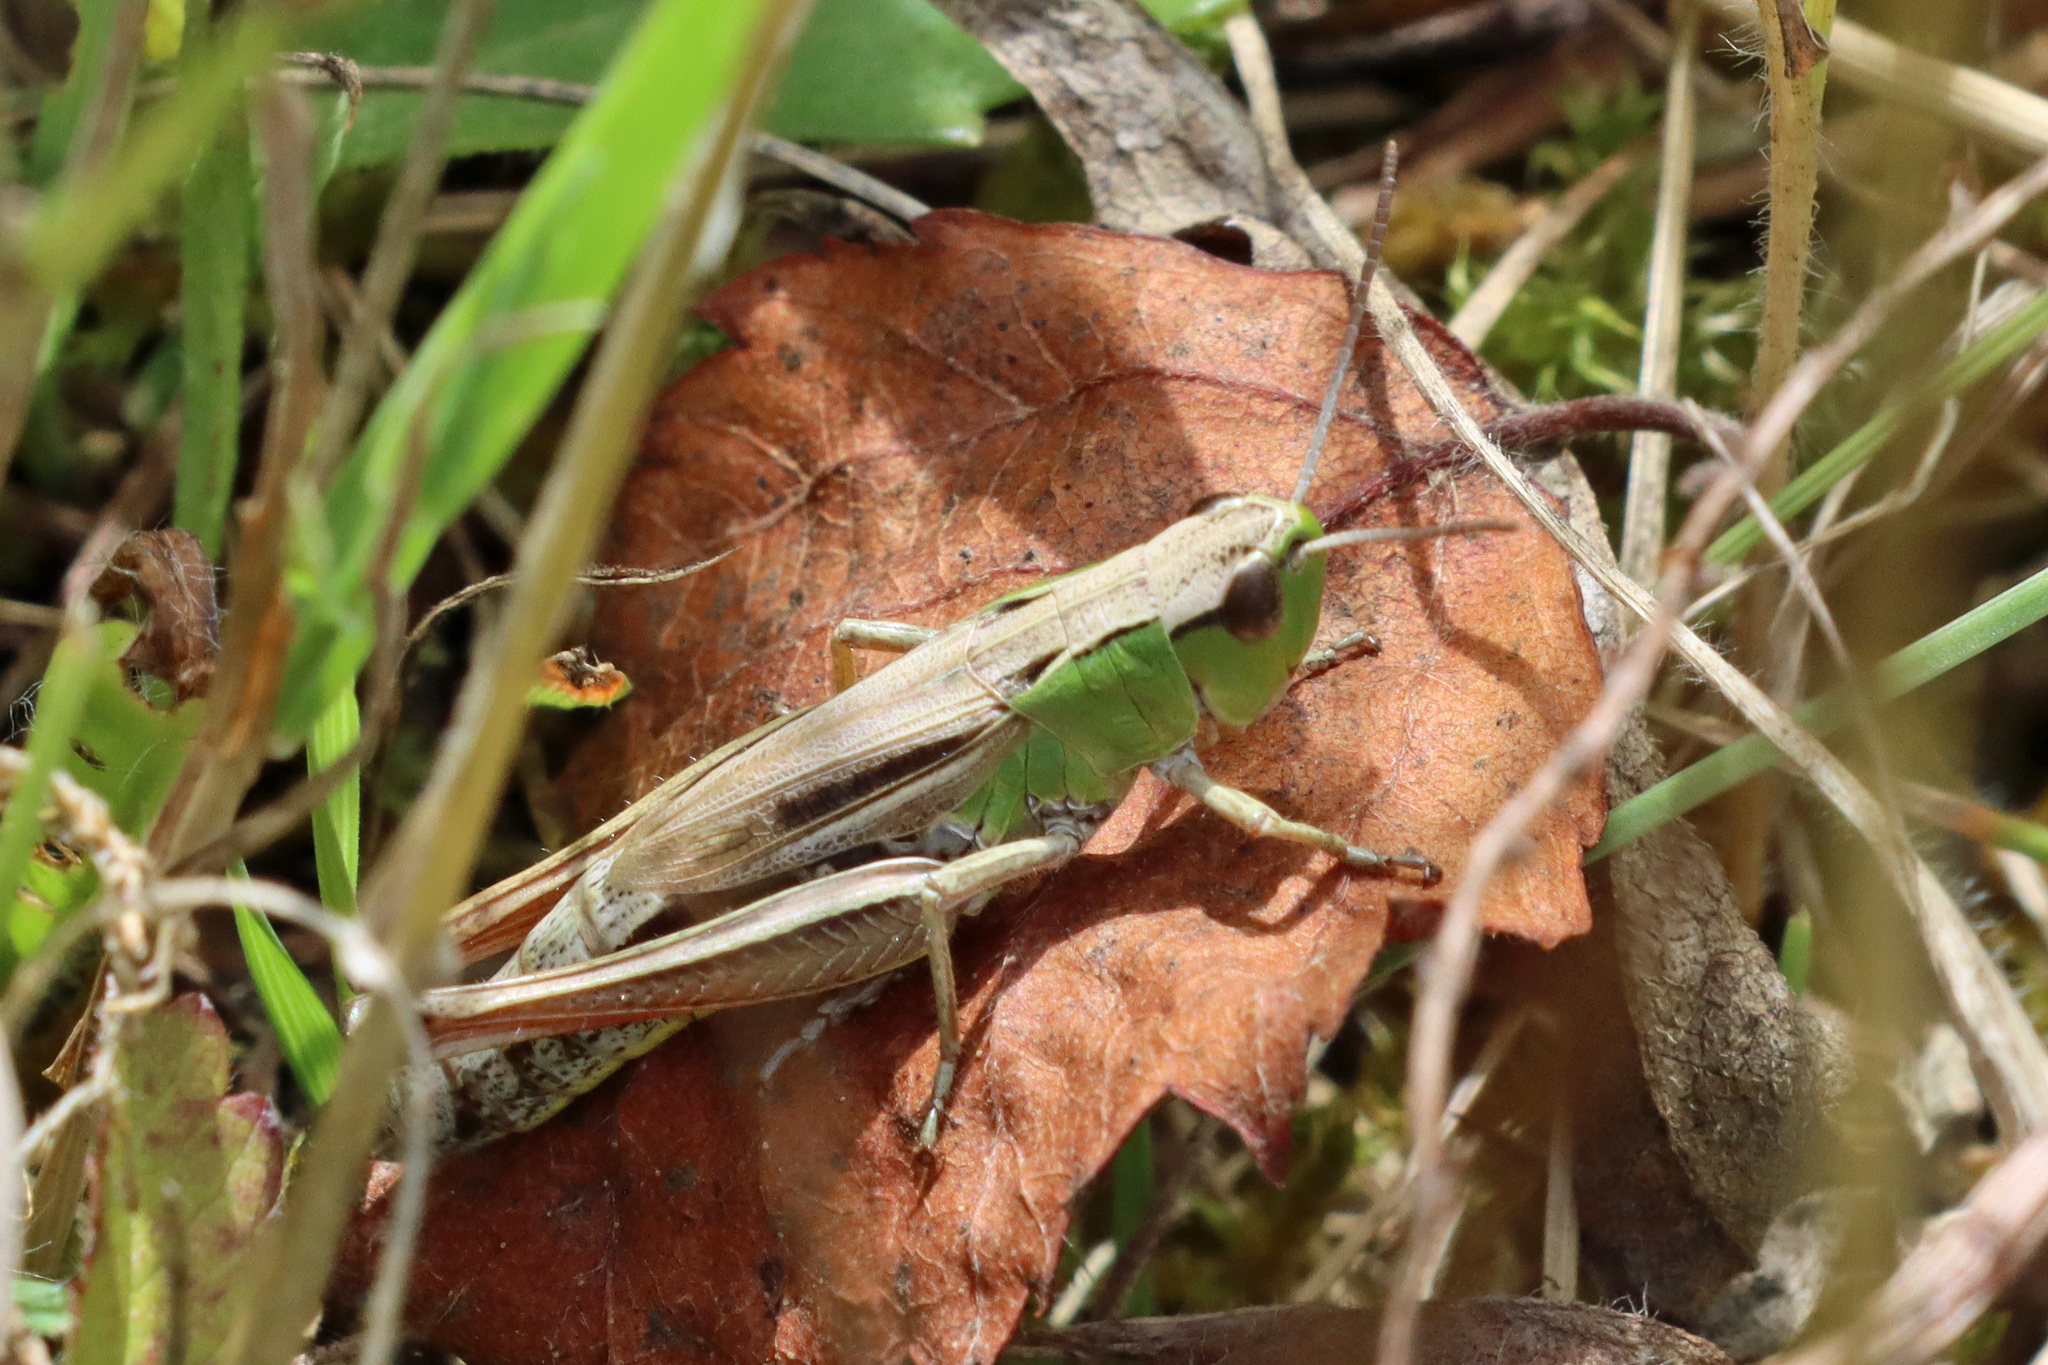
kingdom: Animalia
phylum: Arthropoda
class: Insecta
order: Orthoptera
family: Acrididae
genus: Pseudochorthippus
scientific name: Pseudochorthippus parallelus
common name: Meadow grasshopper
